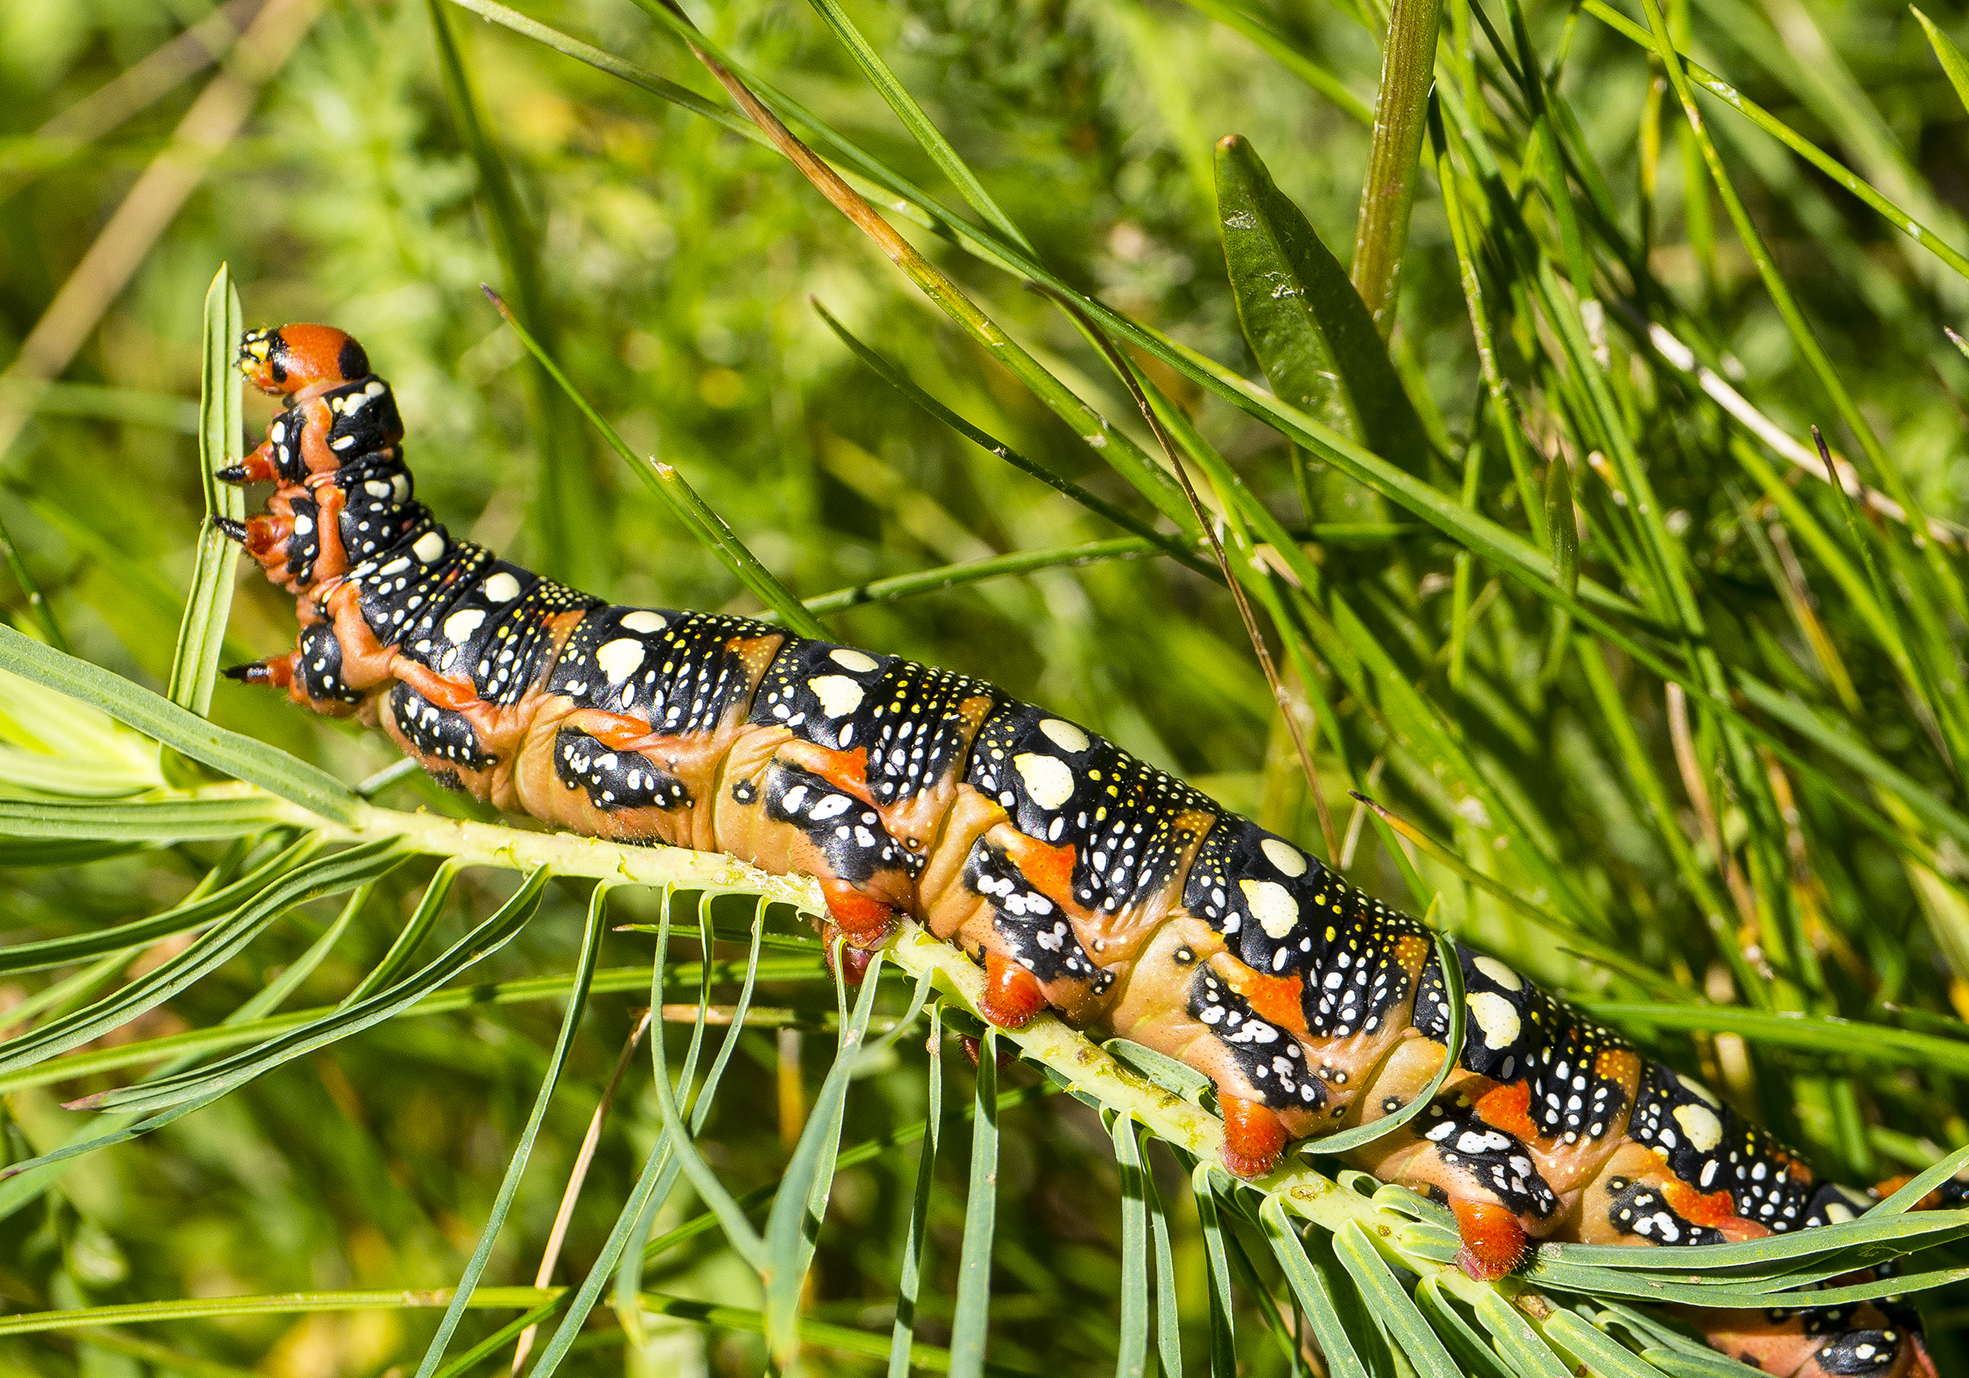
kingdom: Animalia
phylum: Arthropoda
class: Insecta
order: Lepidoptera
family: Sphingidae
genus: Hyles
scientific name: Hyles euphorbiae
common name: Spurge hawk-moth
